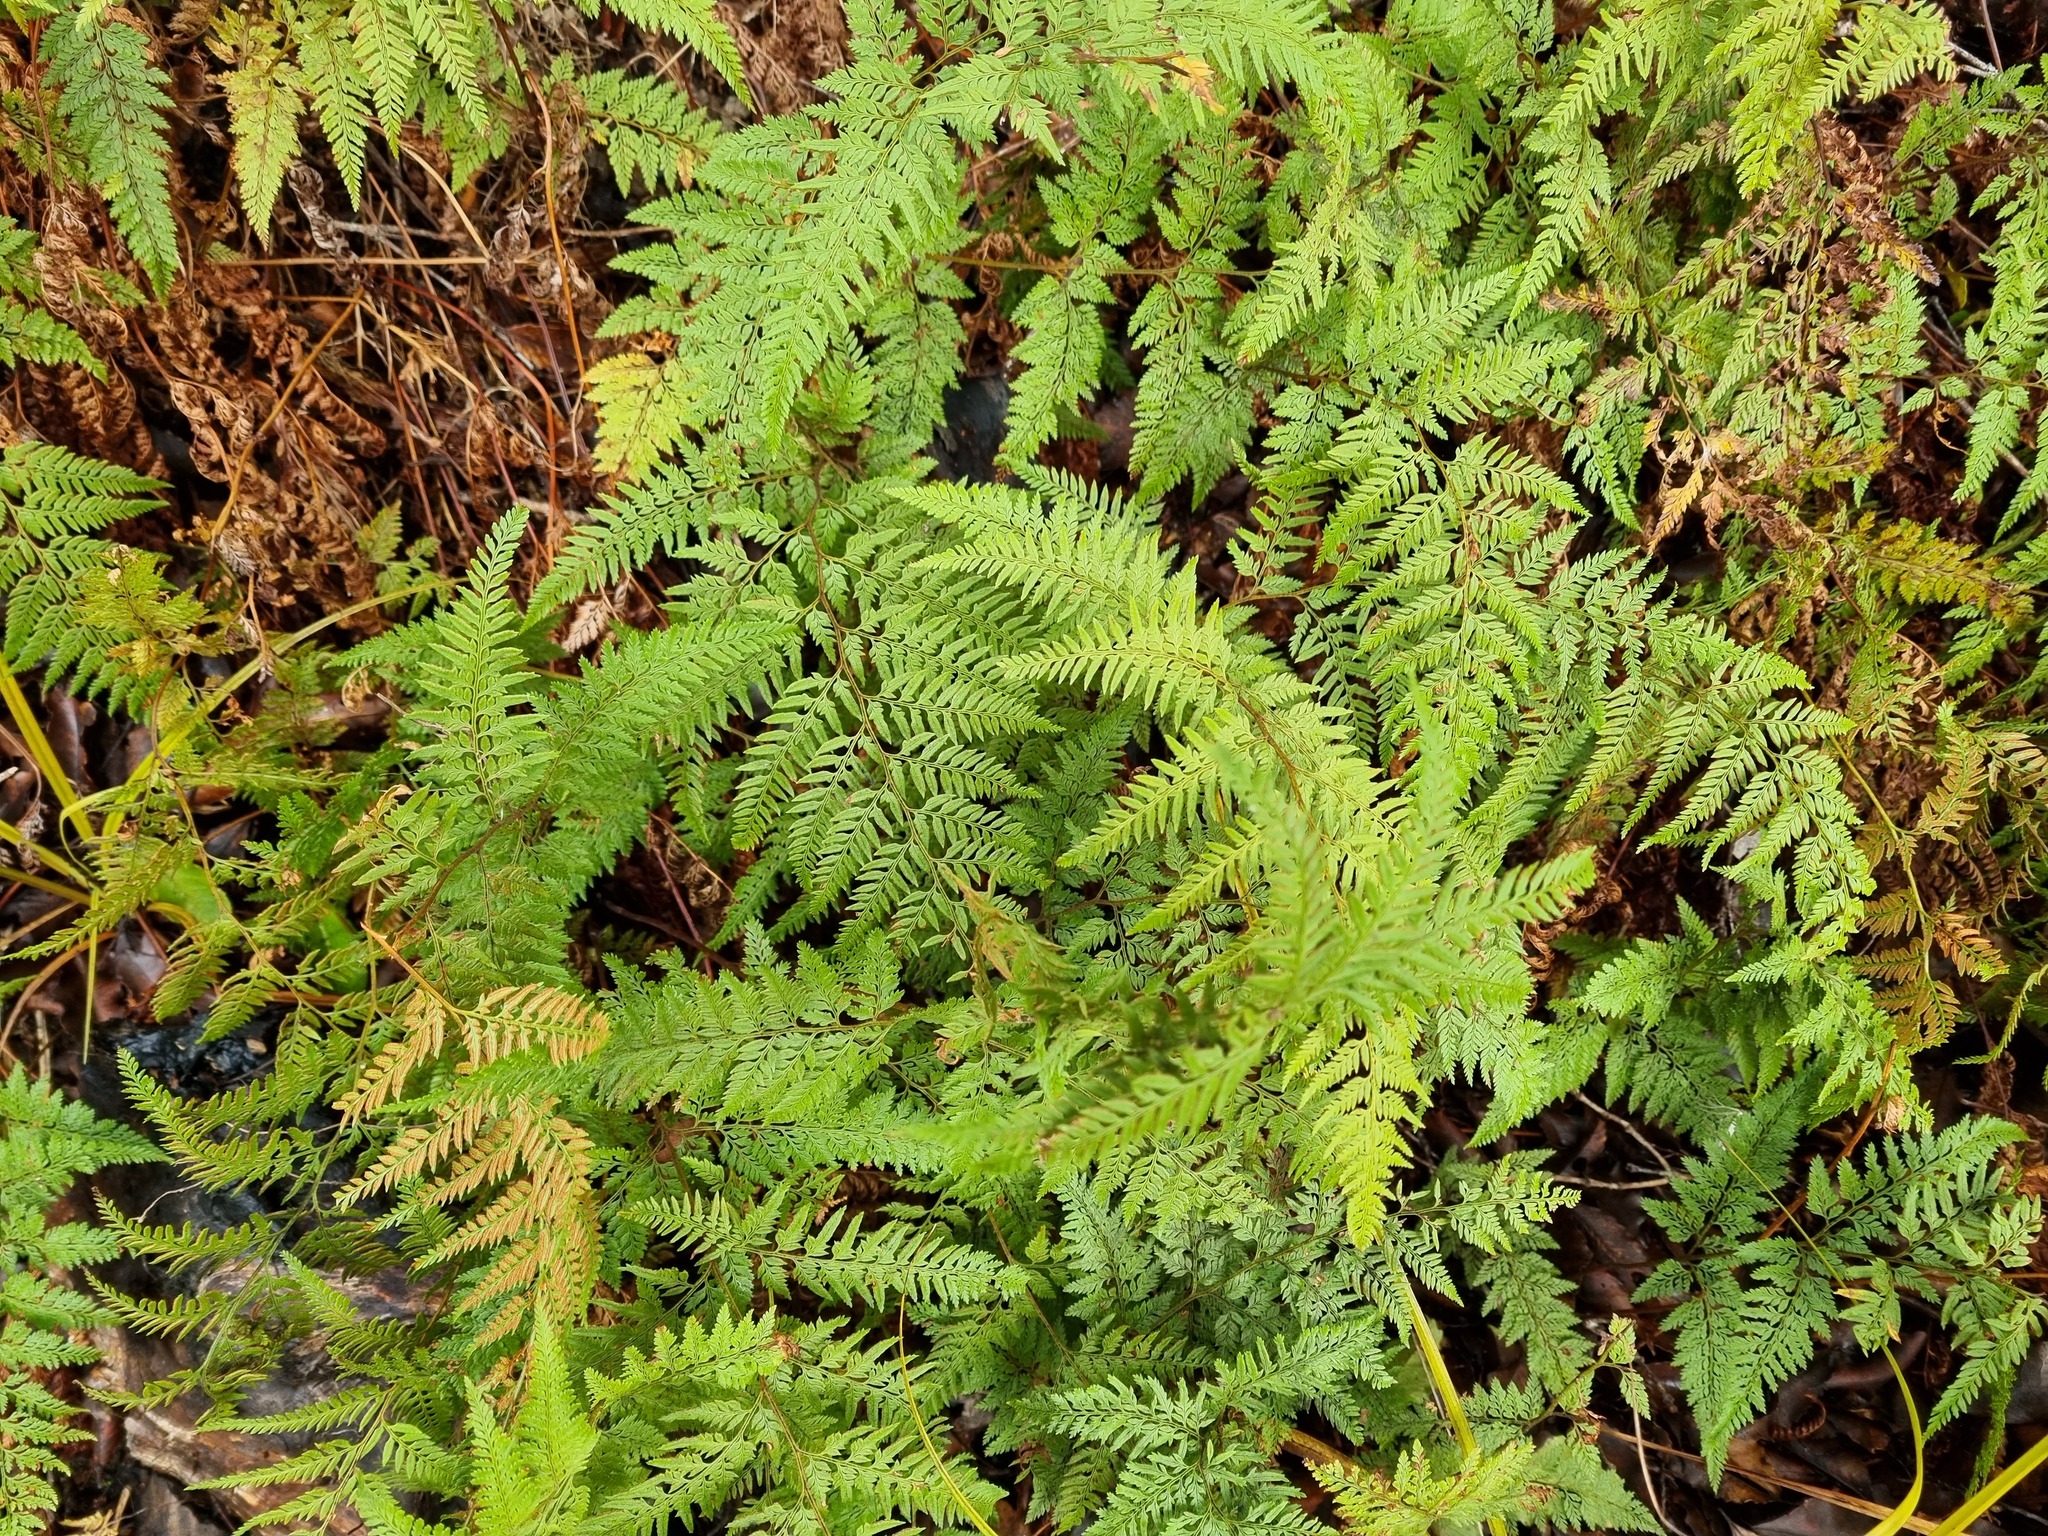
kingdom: Plantae
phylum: Tracheophyta
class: Polypodiopsida
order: Polypodiales
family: Dennstaedtiaceae
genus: Paesia
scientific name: Paesia scaberula
